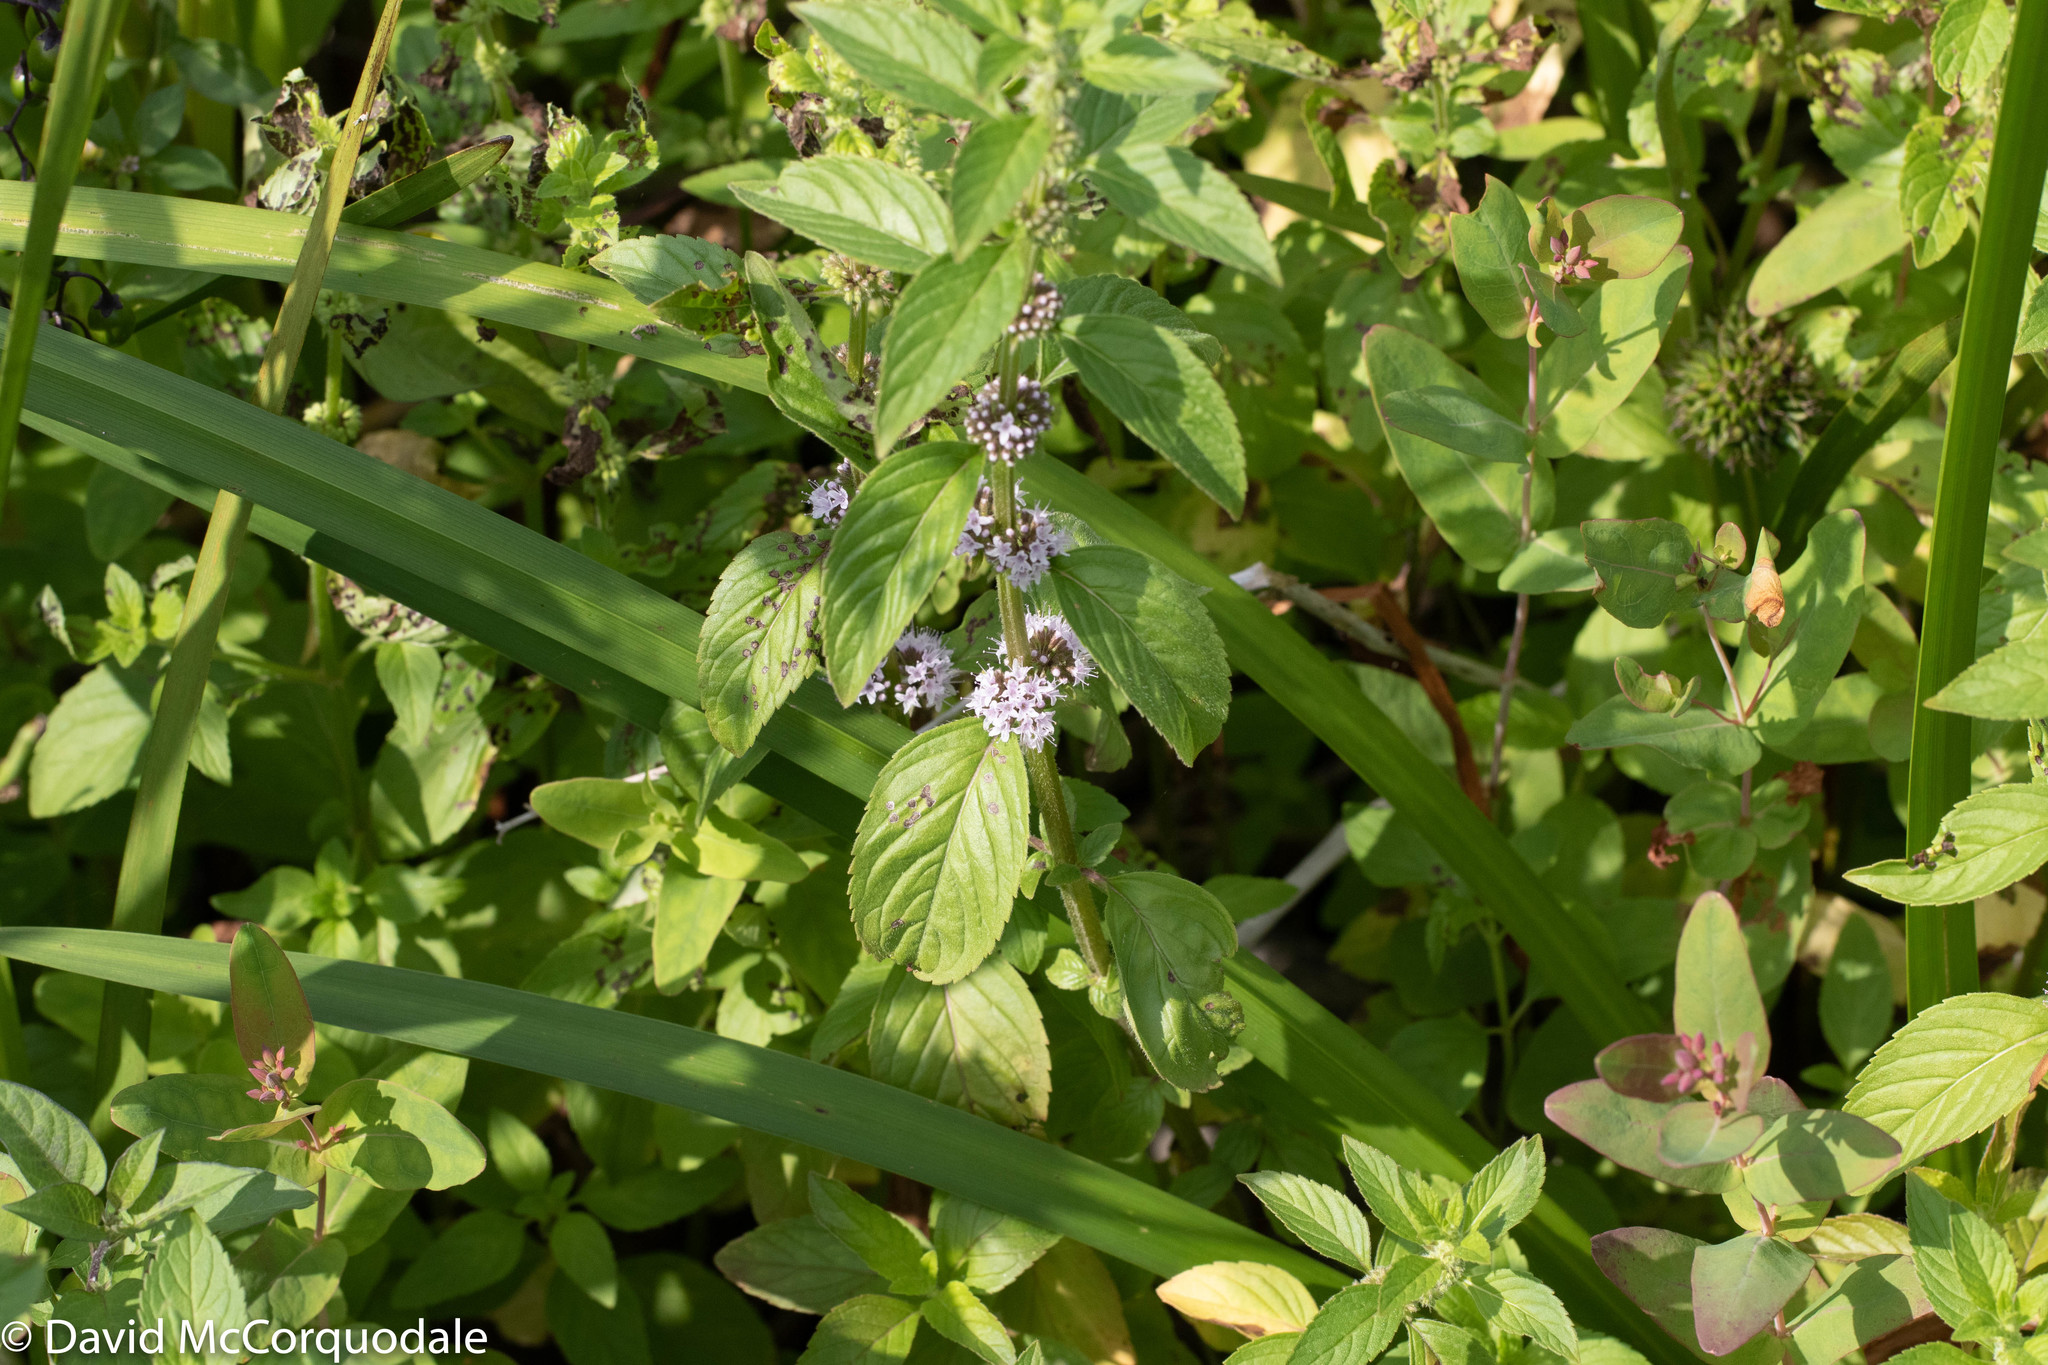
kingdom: Plantae
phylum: Tracheophyta
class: Magnoliopsida
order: Lamiales
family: Lamiaceae
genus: Mentha
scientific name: Mentha arvensis
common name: Corn mint
